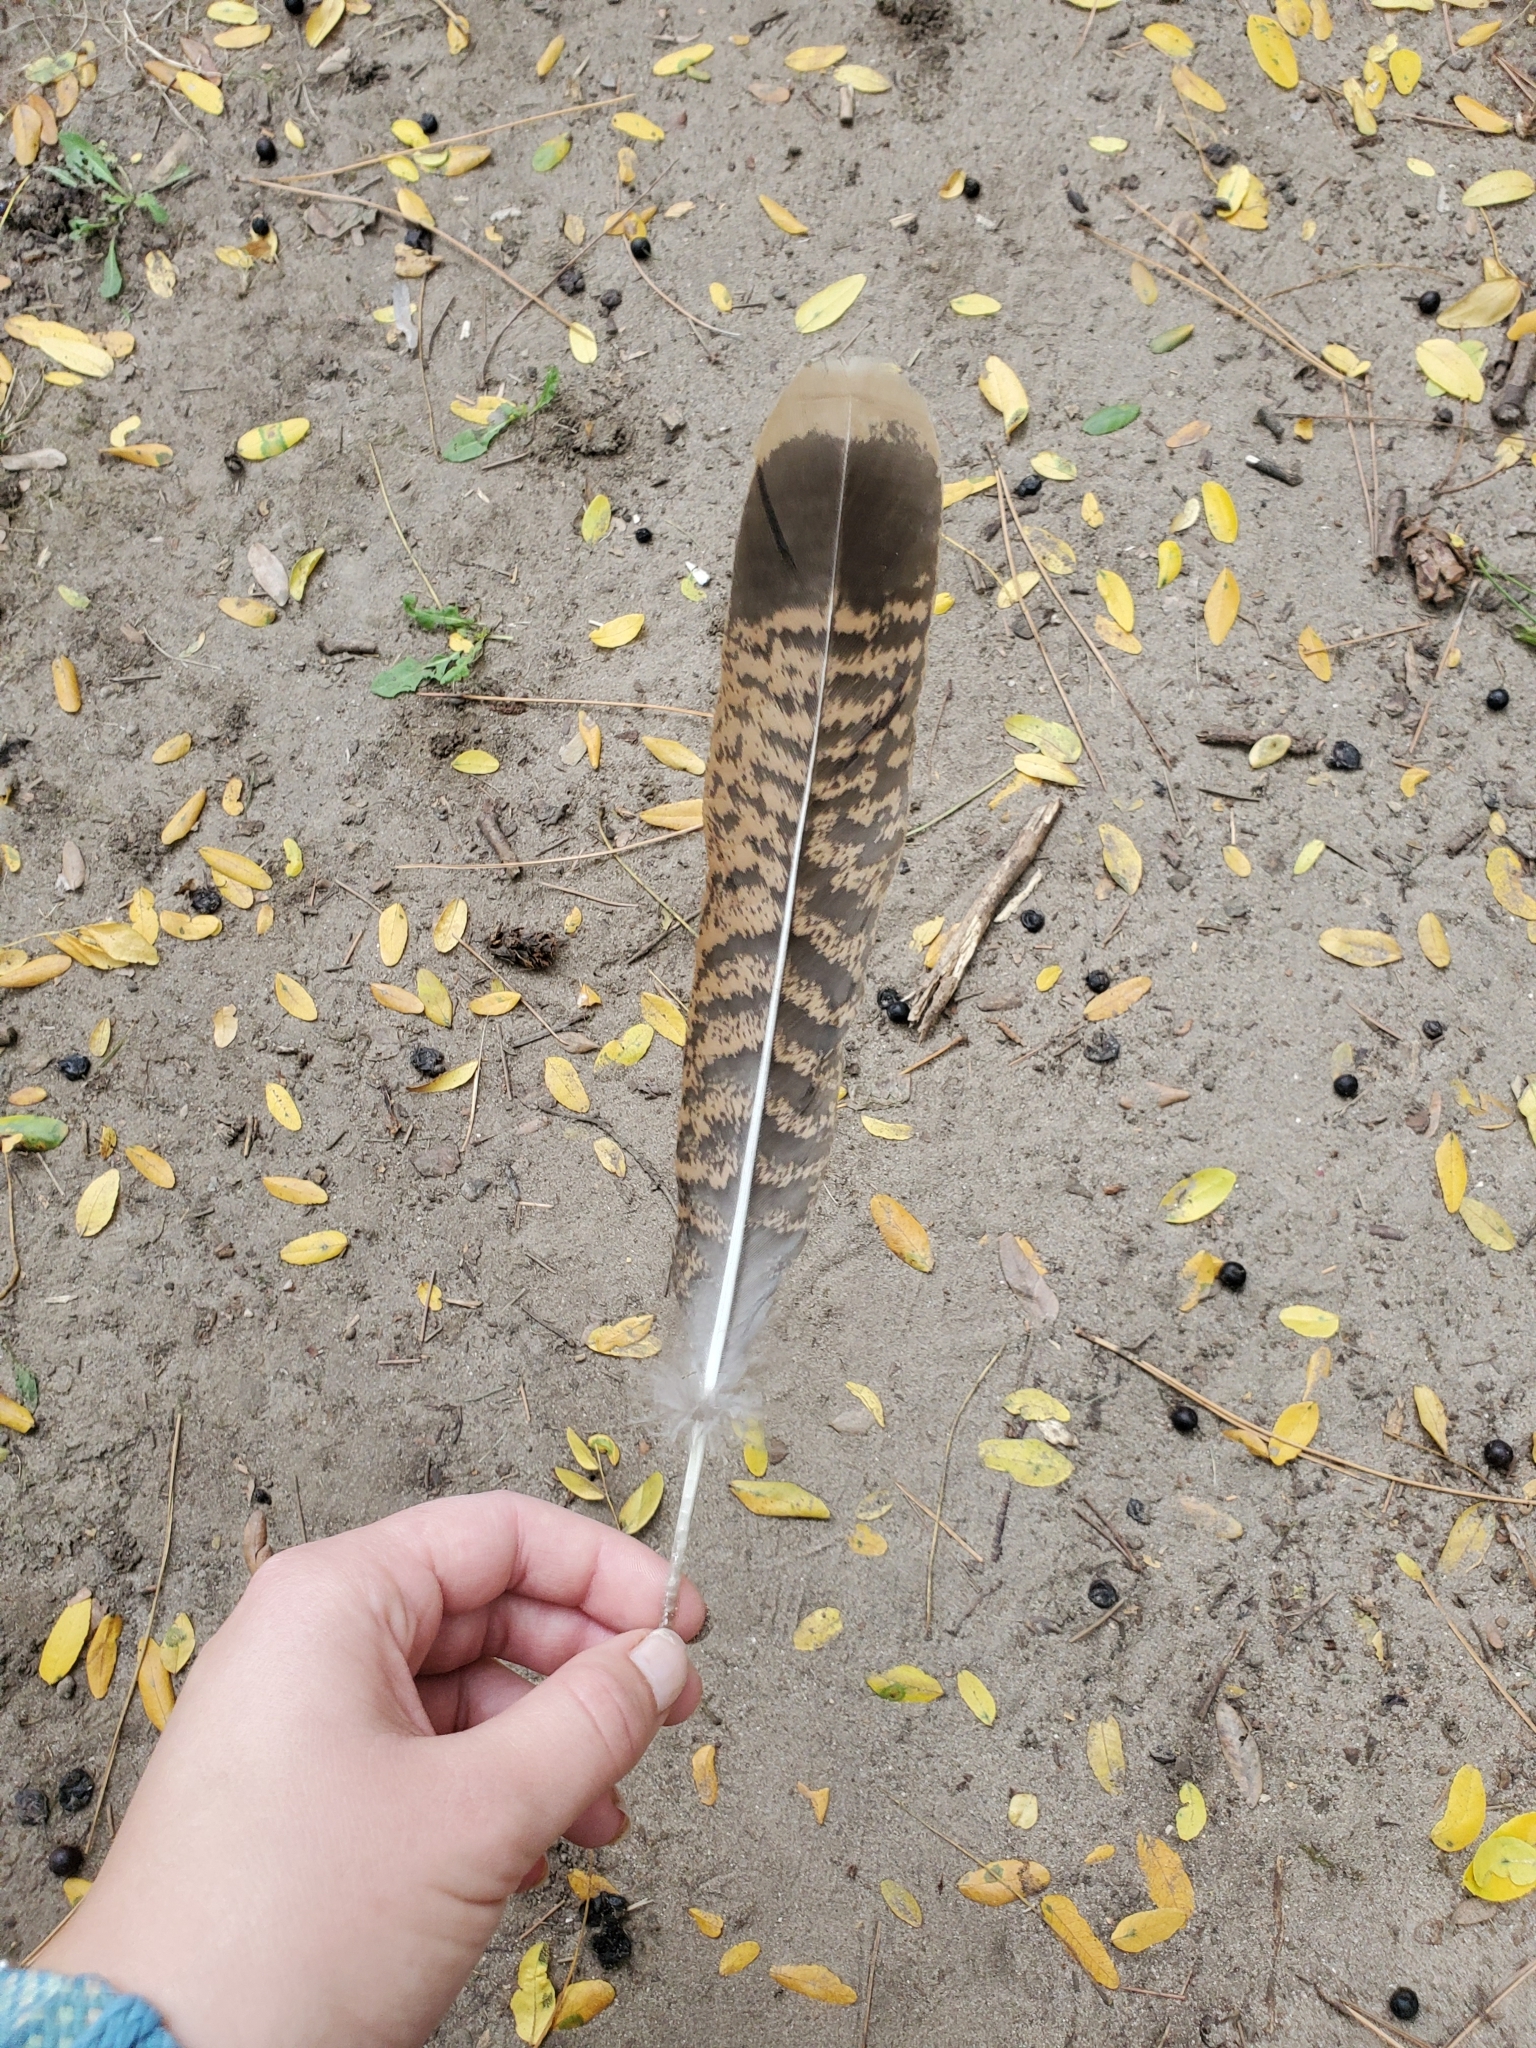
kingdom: Animalia
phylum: Chordata
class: Aves
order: Galliformes
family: Phasianidae
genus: Meleagris
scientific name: Meleagris gallopavo
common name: Wild turkey
